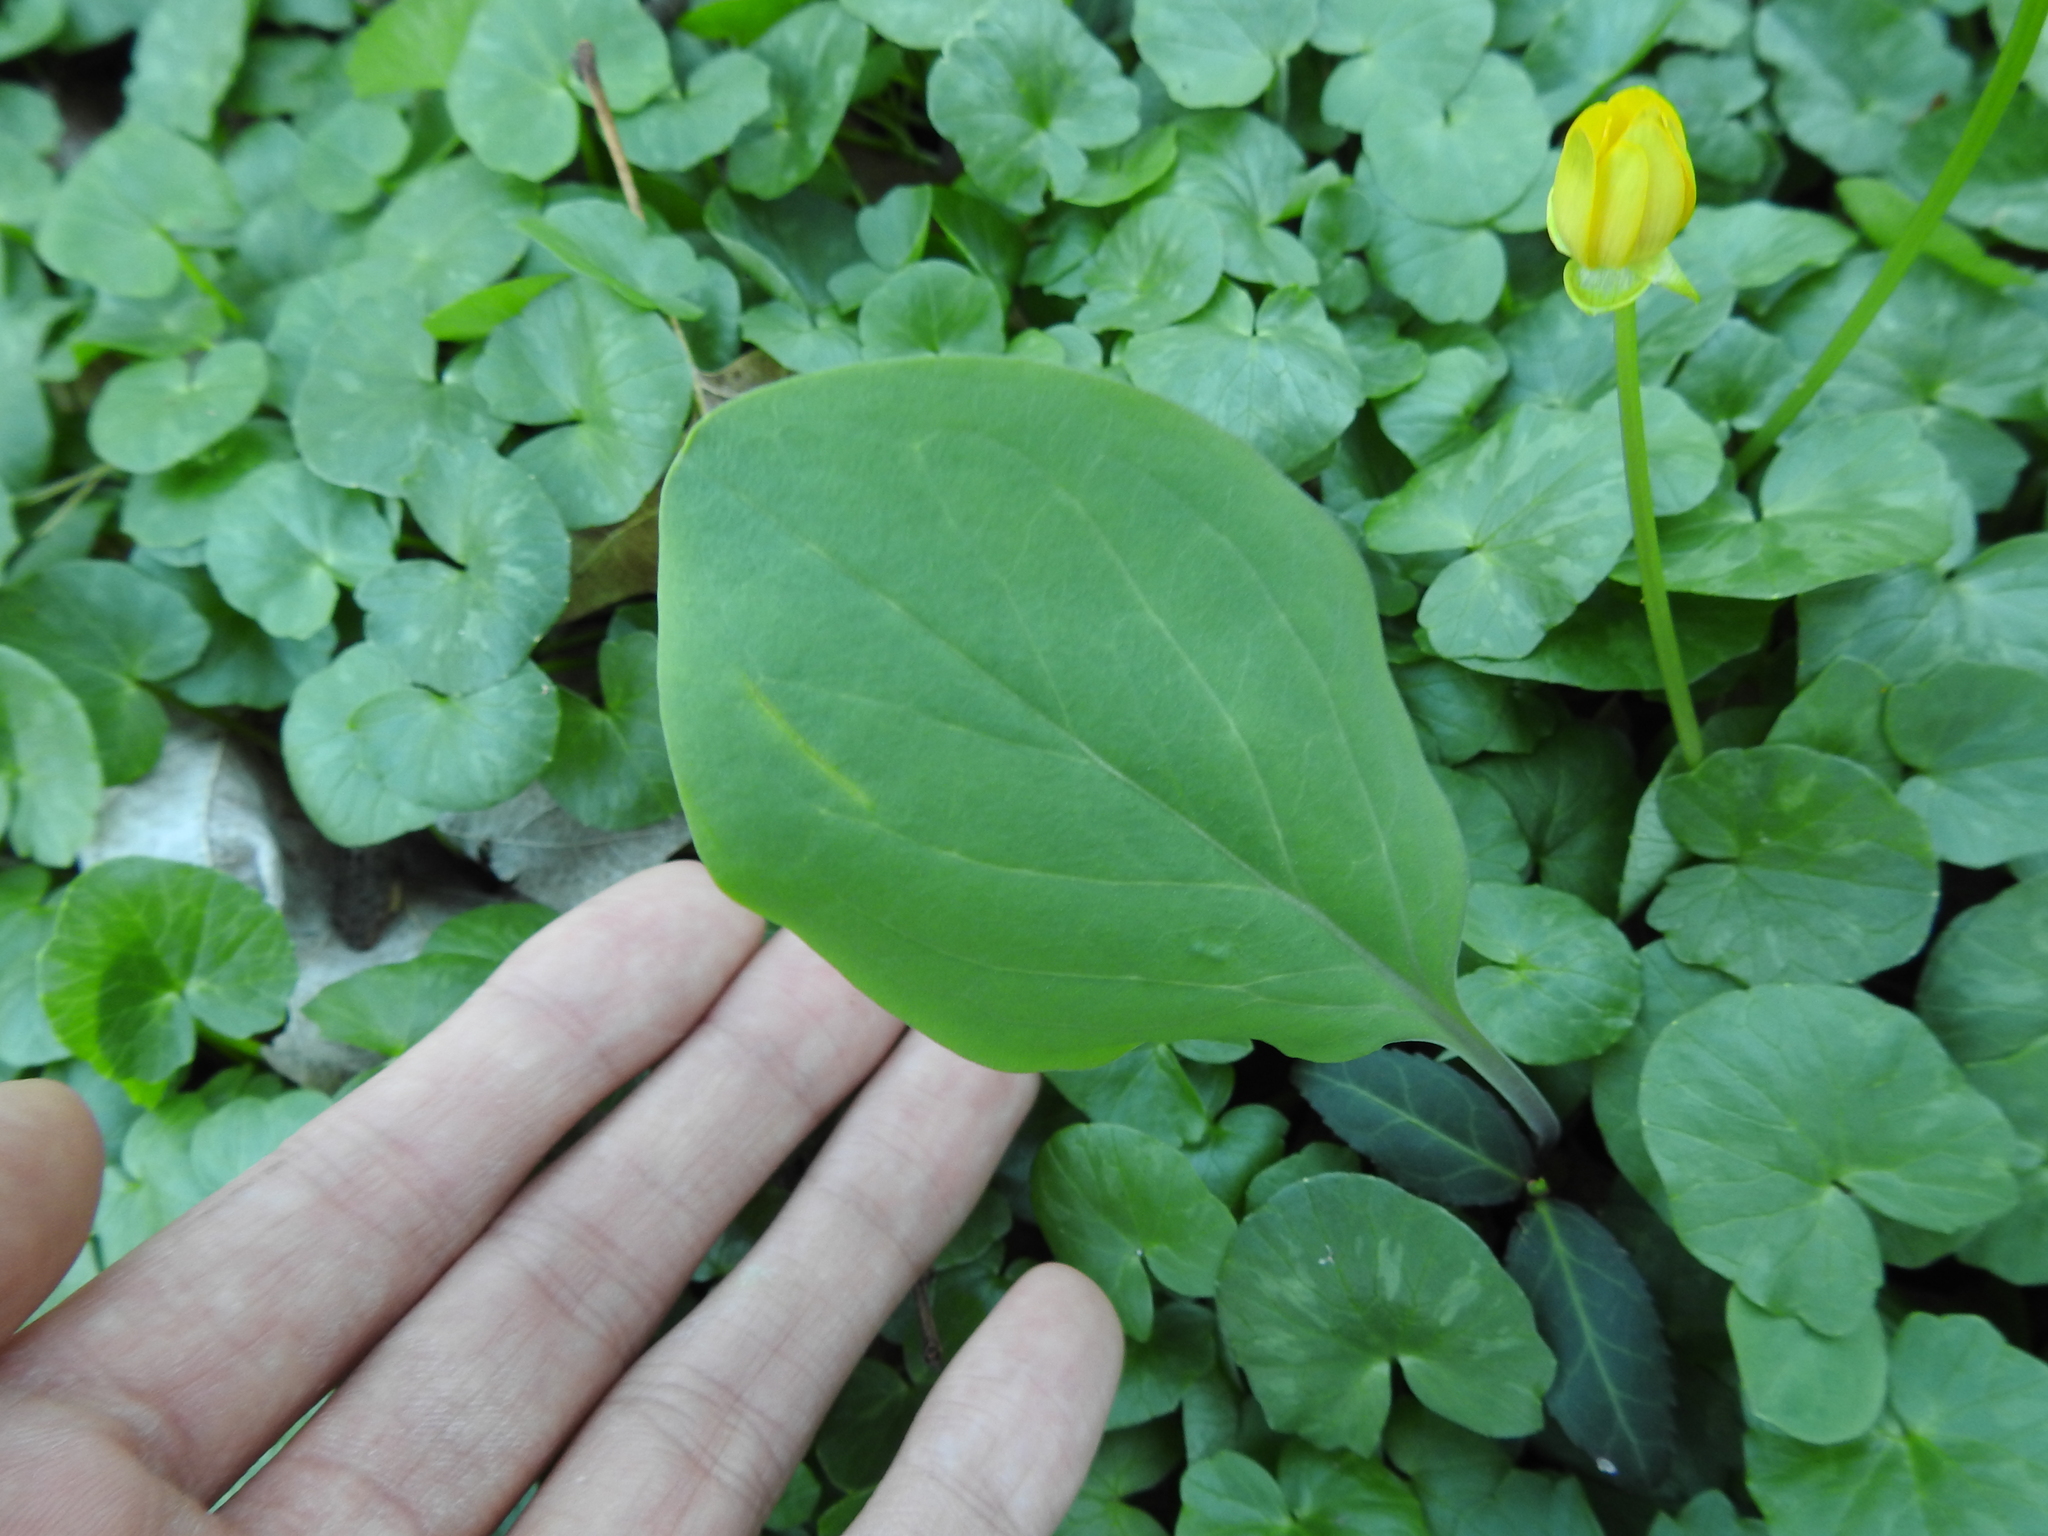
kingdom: Plantae
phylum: Tracheophyta
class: Magnoliopsida
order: Boraginales
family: Boraginaceae
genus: Mertensia
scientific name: Mertensia virginica
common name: Virginia bluebells
